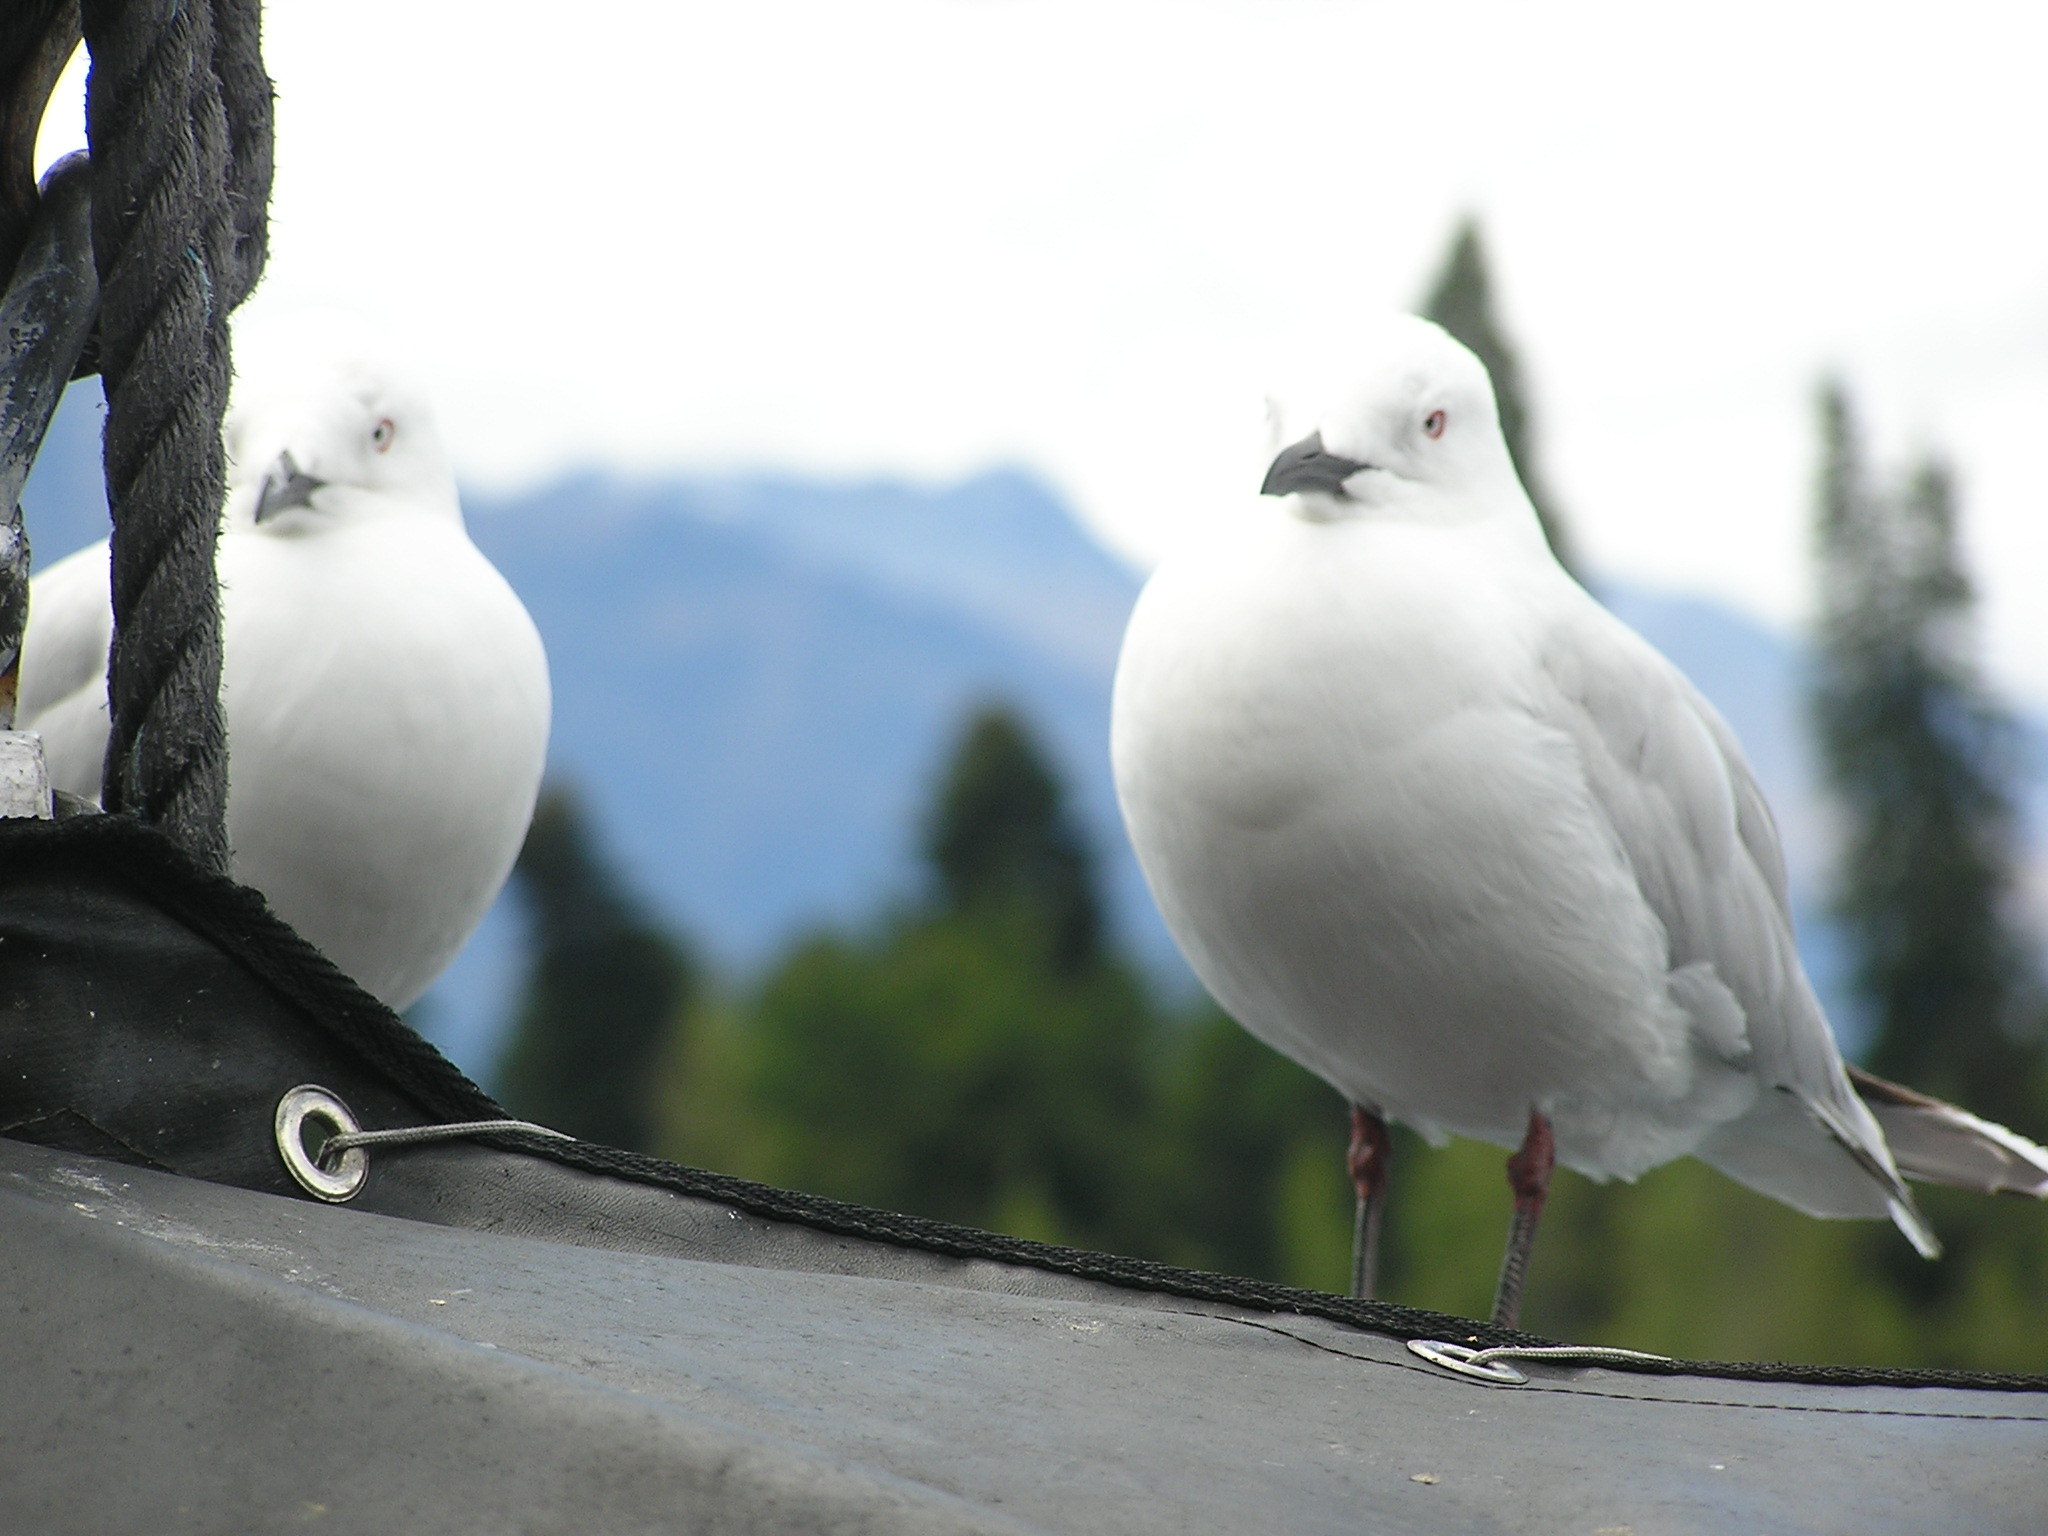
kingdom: Animalia
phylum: Chordata
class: Aves
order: Charadriiformes
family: Laridae
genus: Chroicocephalus
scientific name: Chroicocephalus bulleri
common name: Black-billed gull
